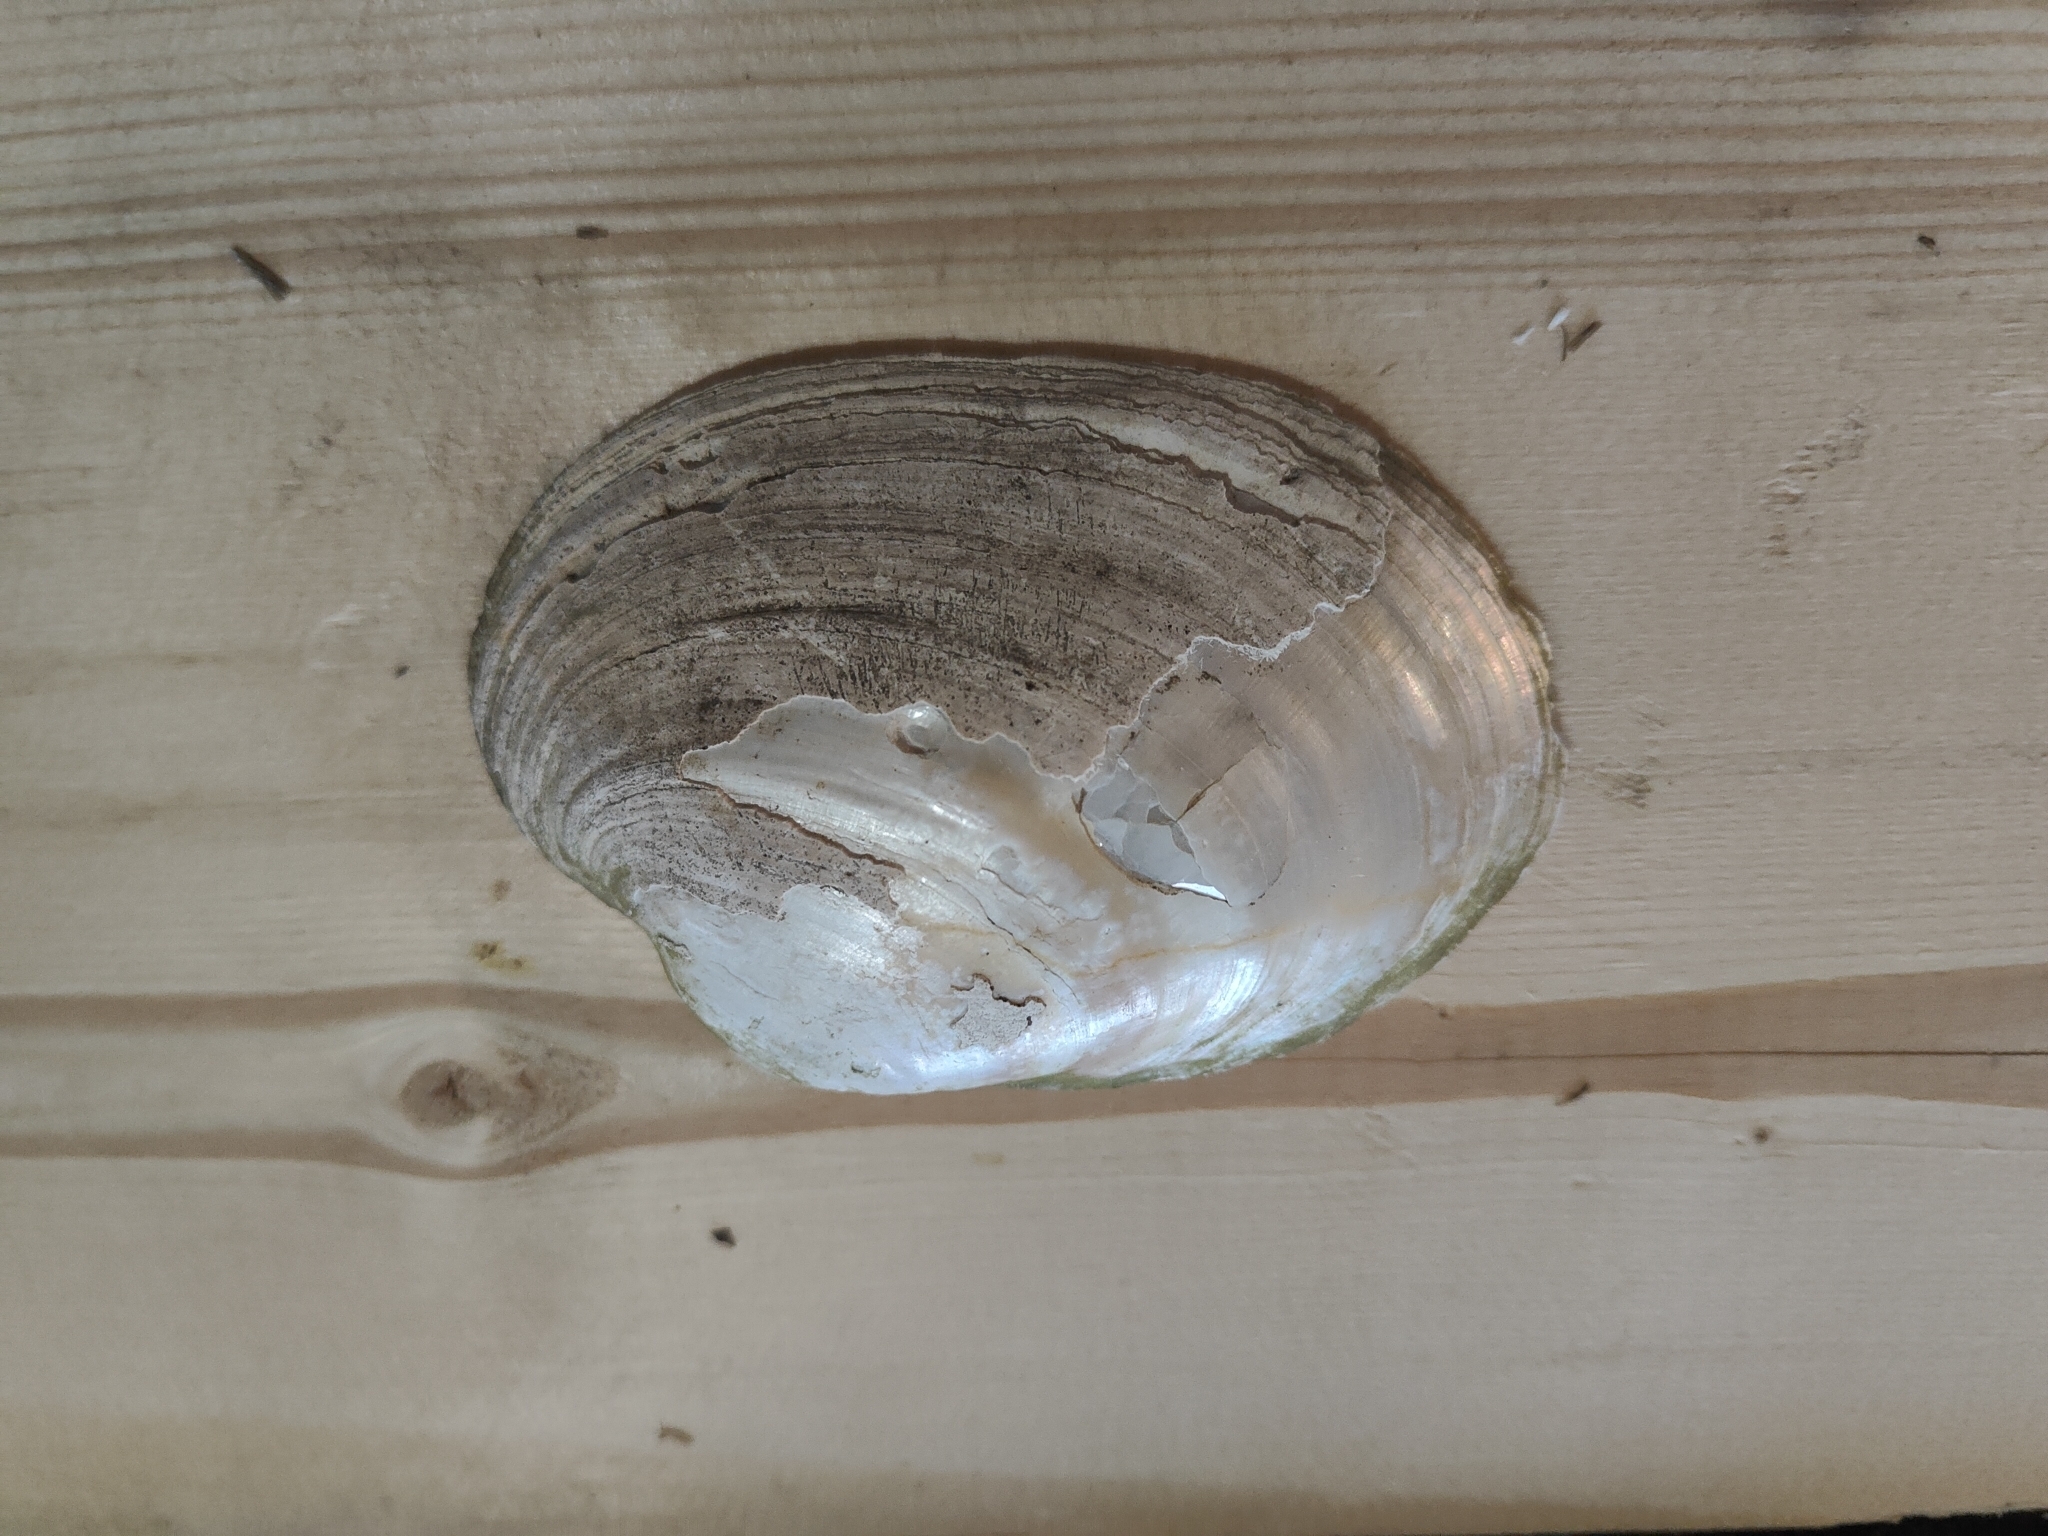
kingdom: Animalia
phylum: Mollusca
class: Bivalvia
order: Unionida
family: Unionidae
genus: Lampsilis
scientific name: Lampsilis cardium
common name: Plain pocketbook
